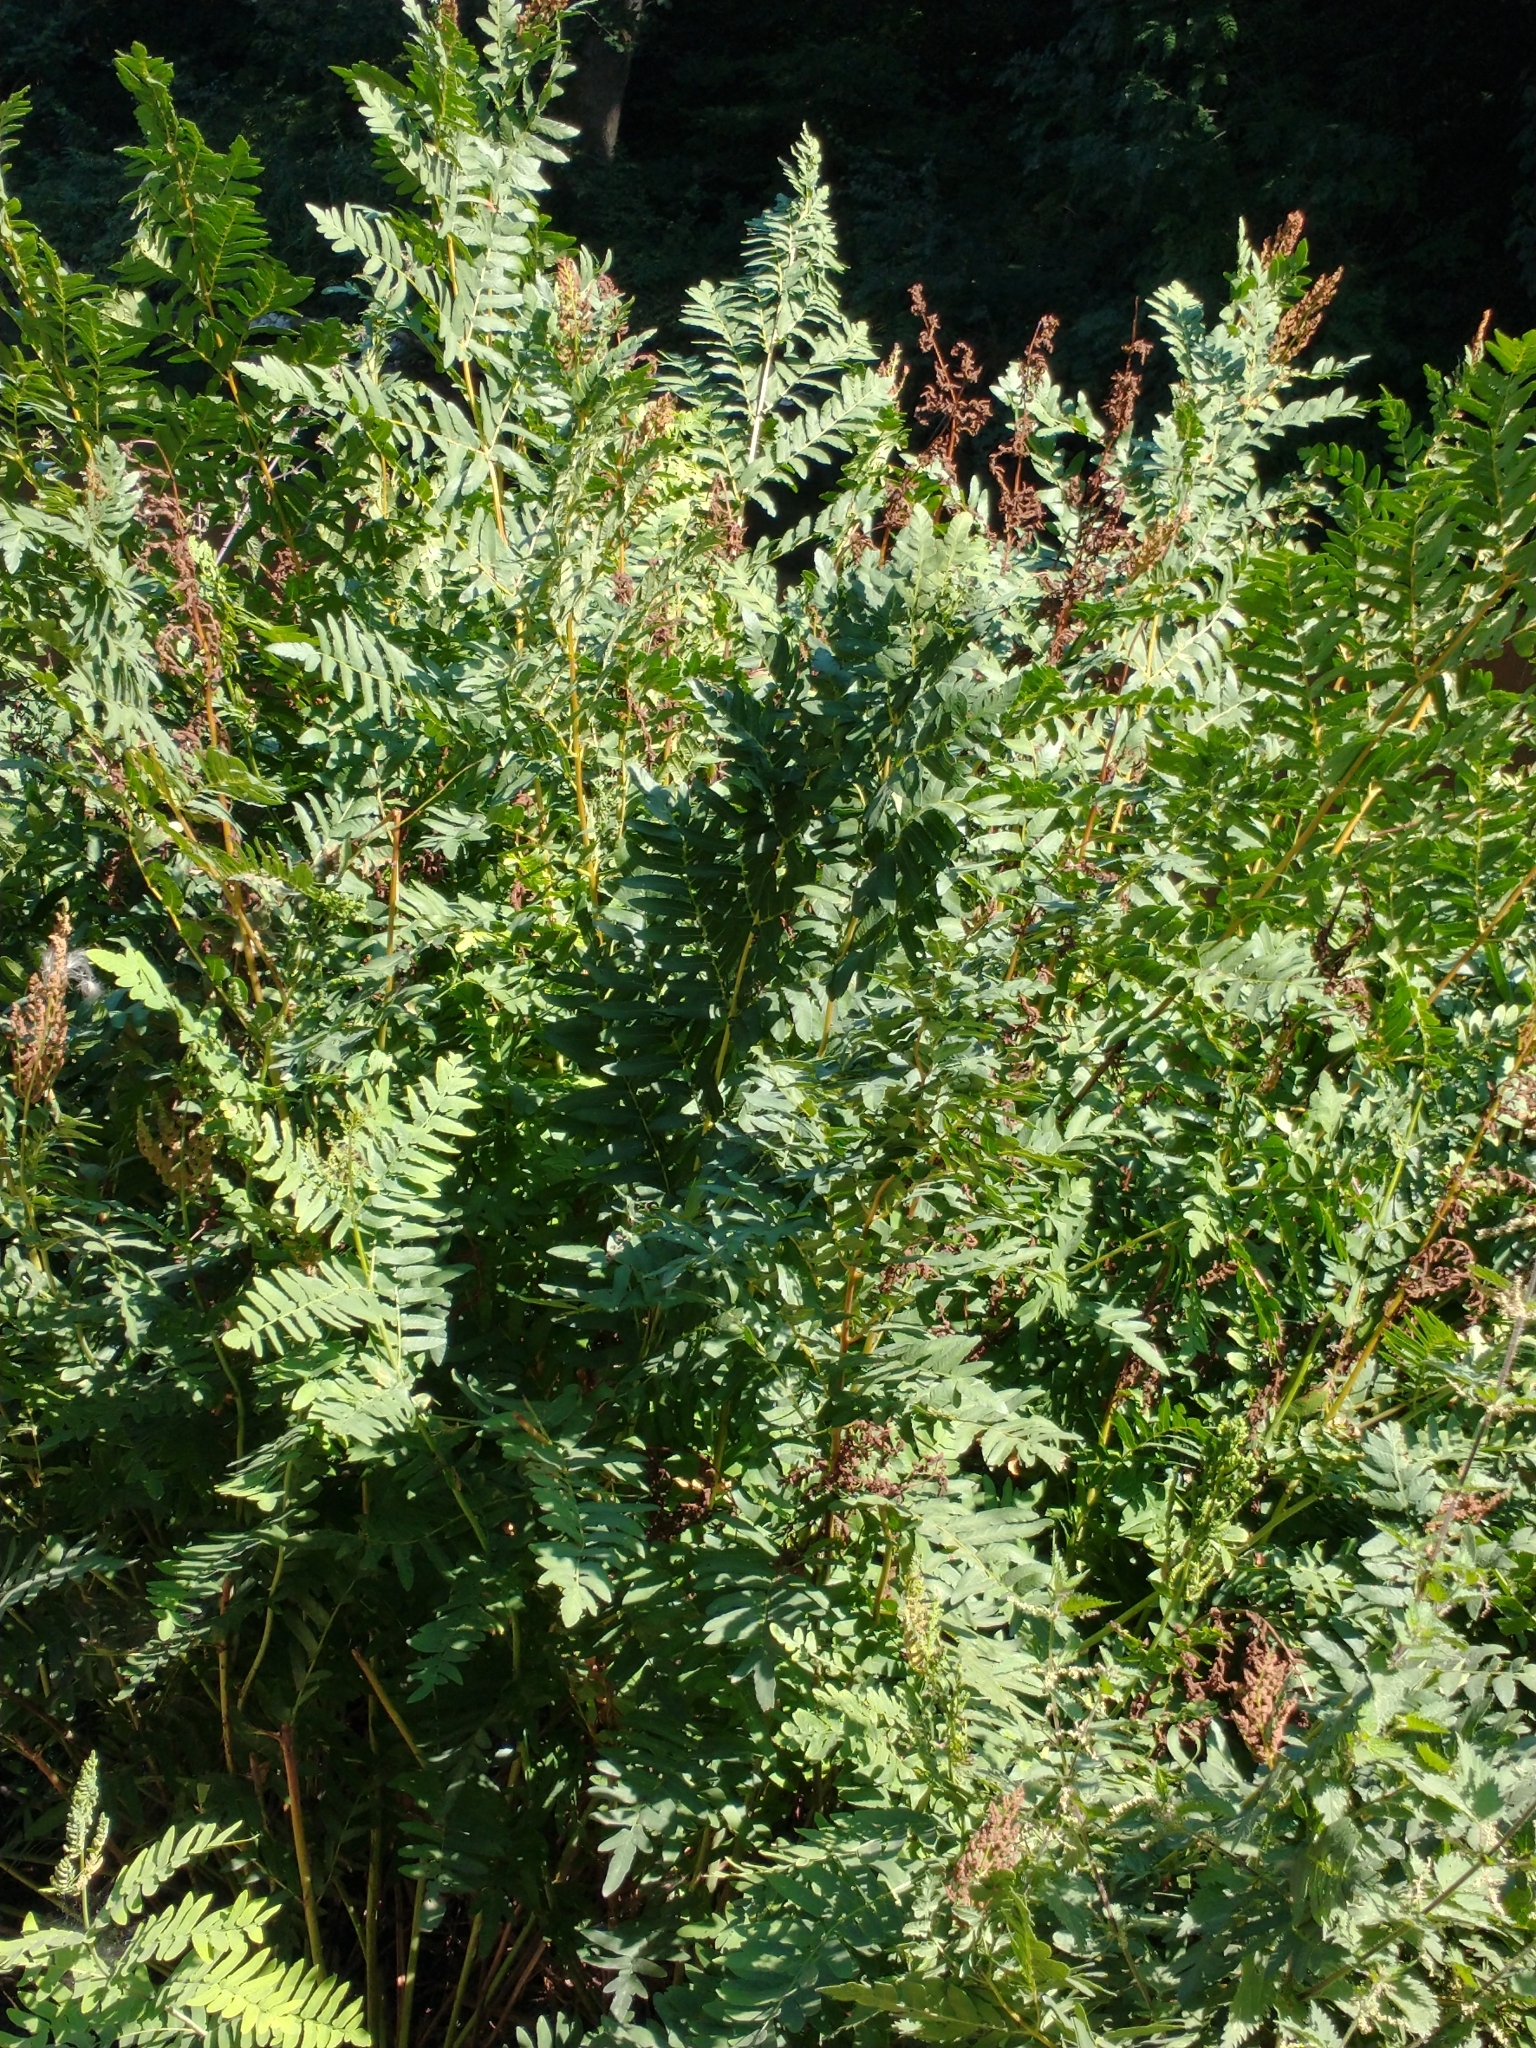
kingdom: Plantae
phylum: Tracheophyta
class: Polypodiopsida
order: Osmundales
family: Osmundaceae
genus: Osmunda
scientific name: Osmunda regalis
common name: Royal fern
